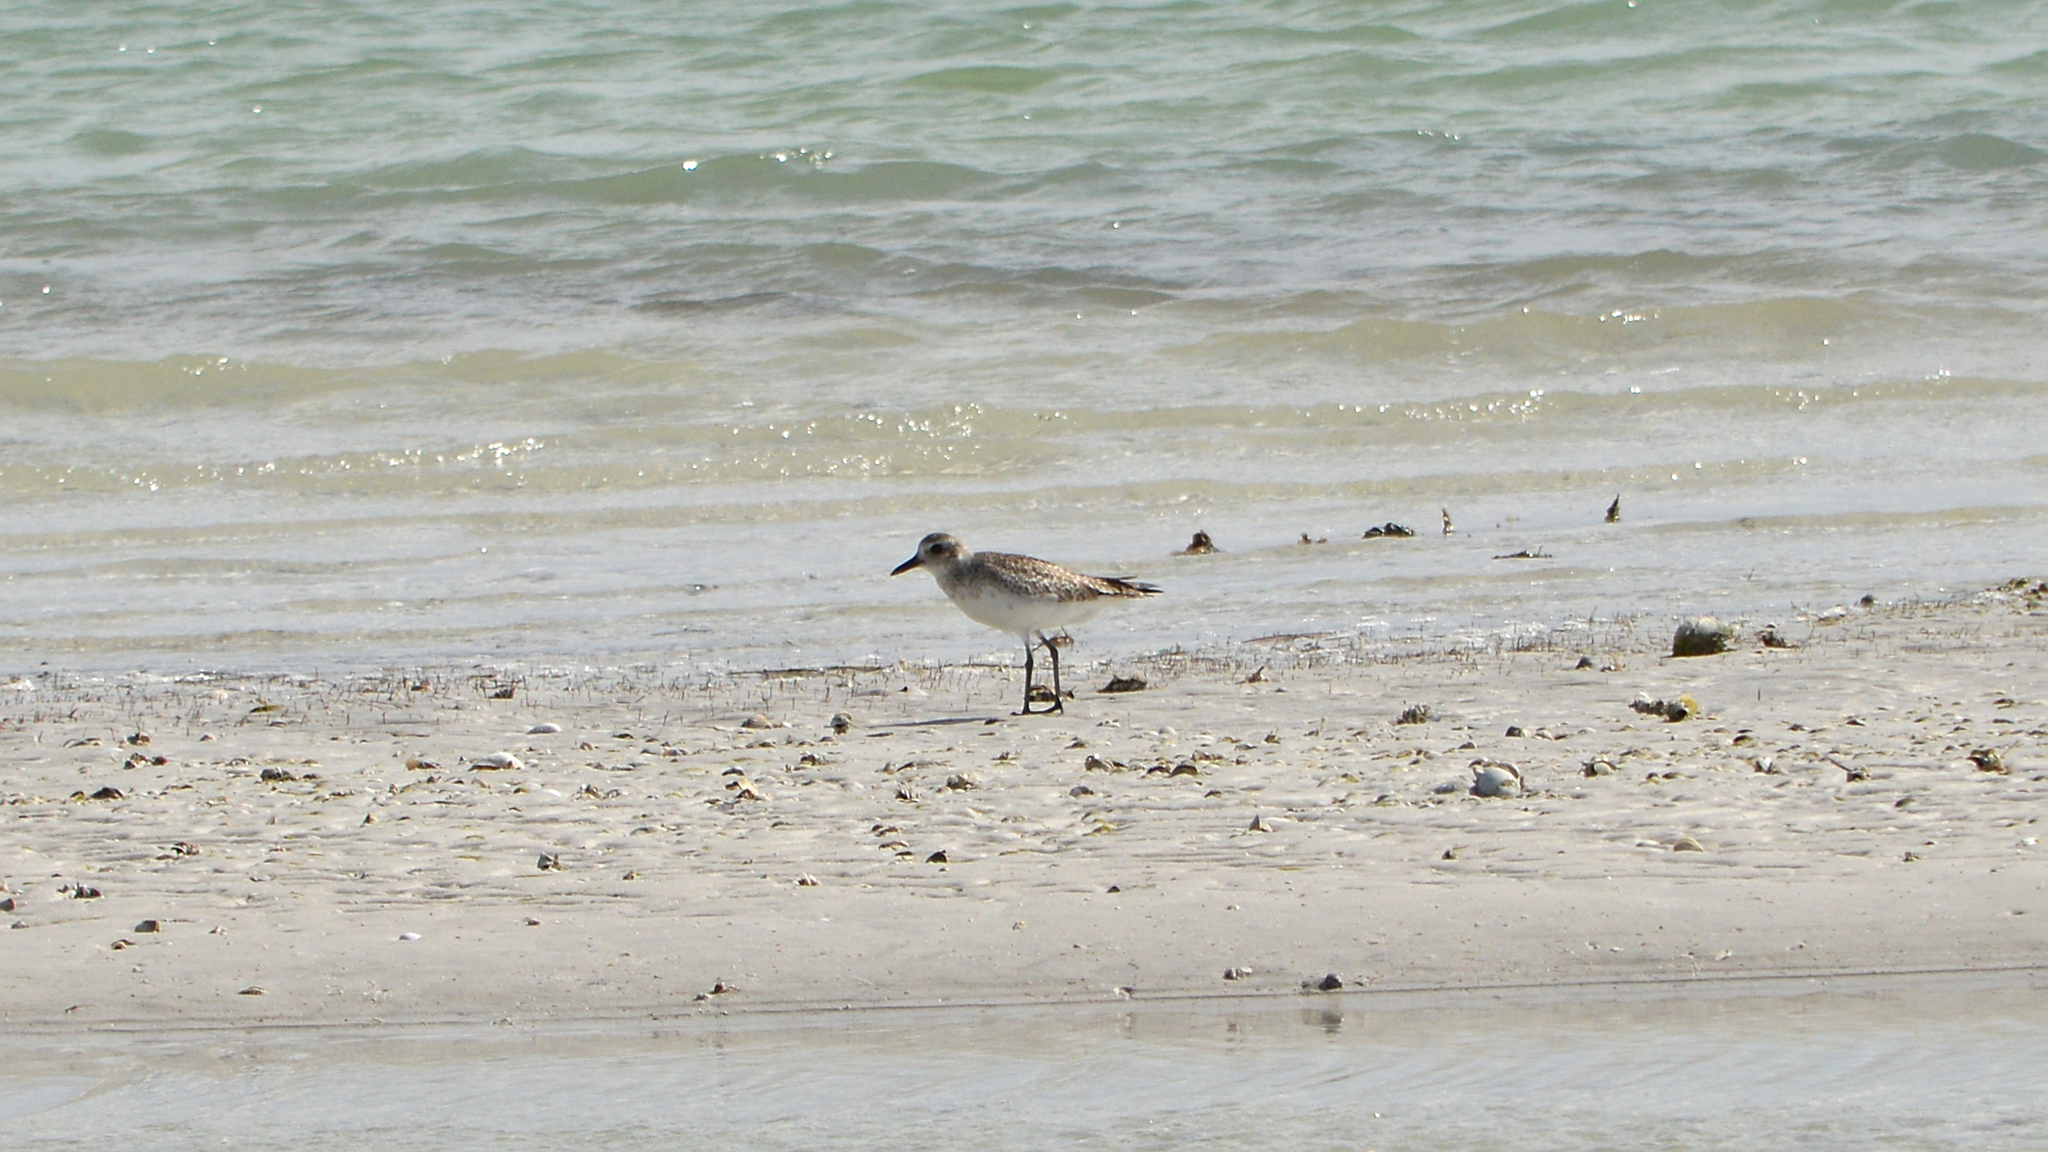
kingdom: Animalia
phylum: Chordata
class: Aves
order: Charadriiformes
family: Charadriidae
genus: Pluvialis
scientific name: Pluvialis squatarola
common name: Grey plover
